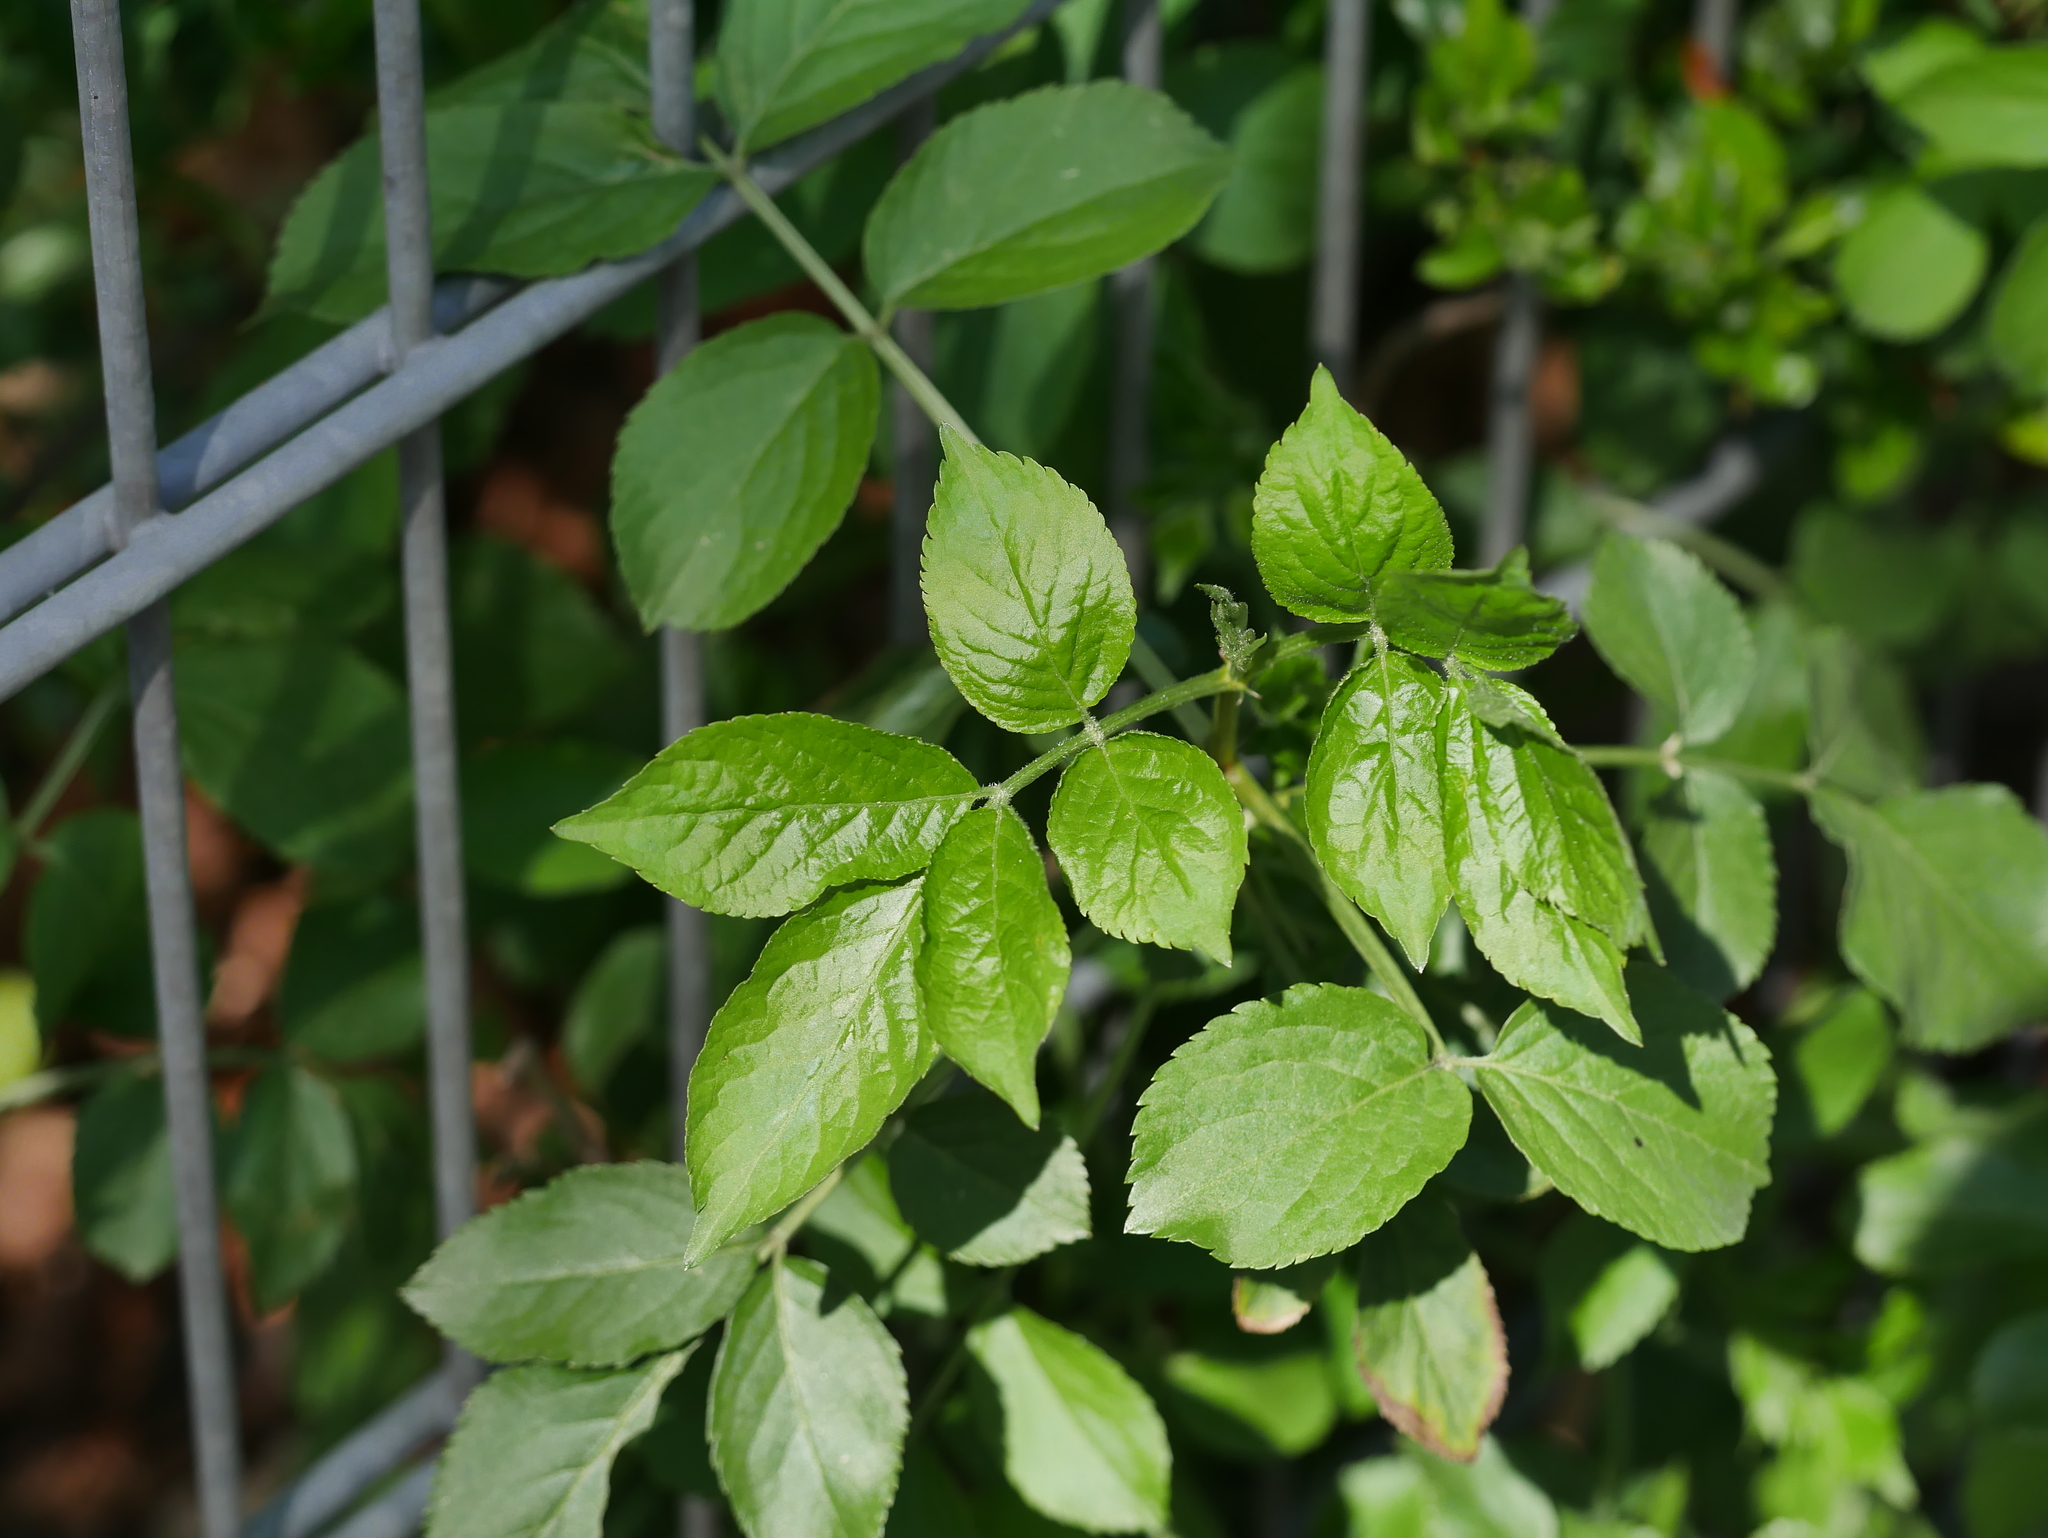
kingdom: Plantae
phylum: Tracheophyta
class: Magnoliopsida
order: Dipsacales
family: Viburnaceae
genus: Sambucus
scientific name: Sambucus nigra
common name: Elder
